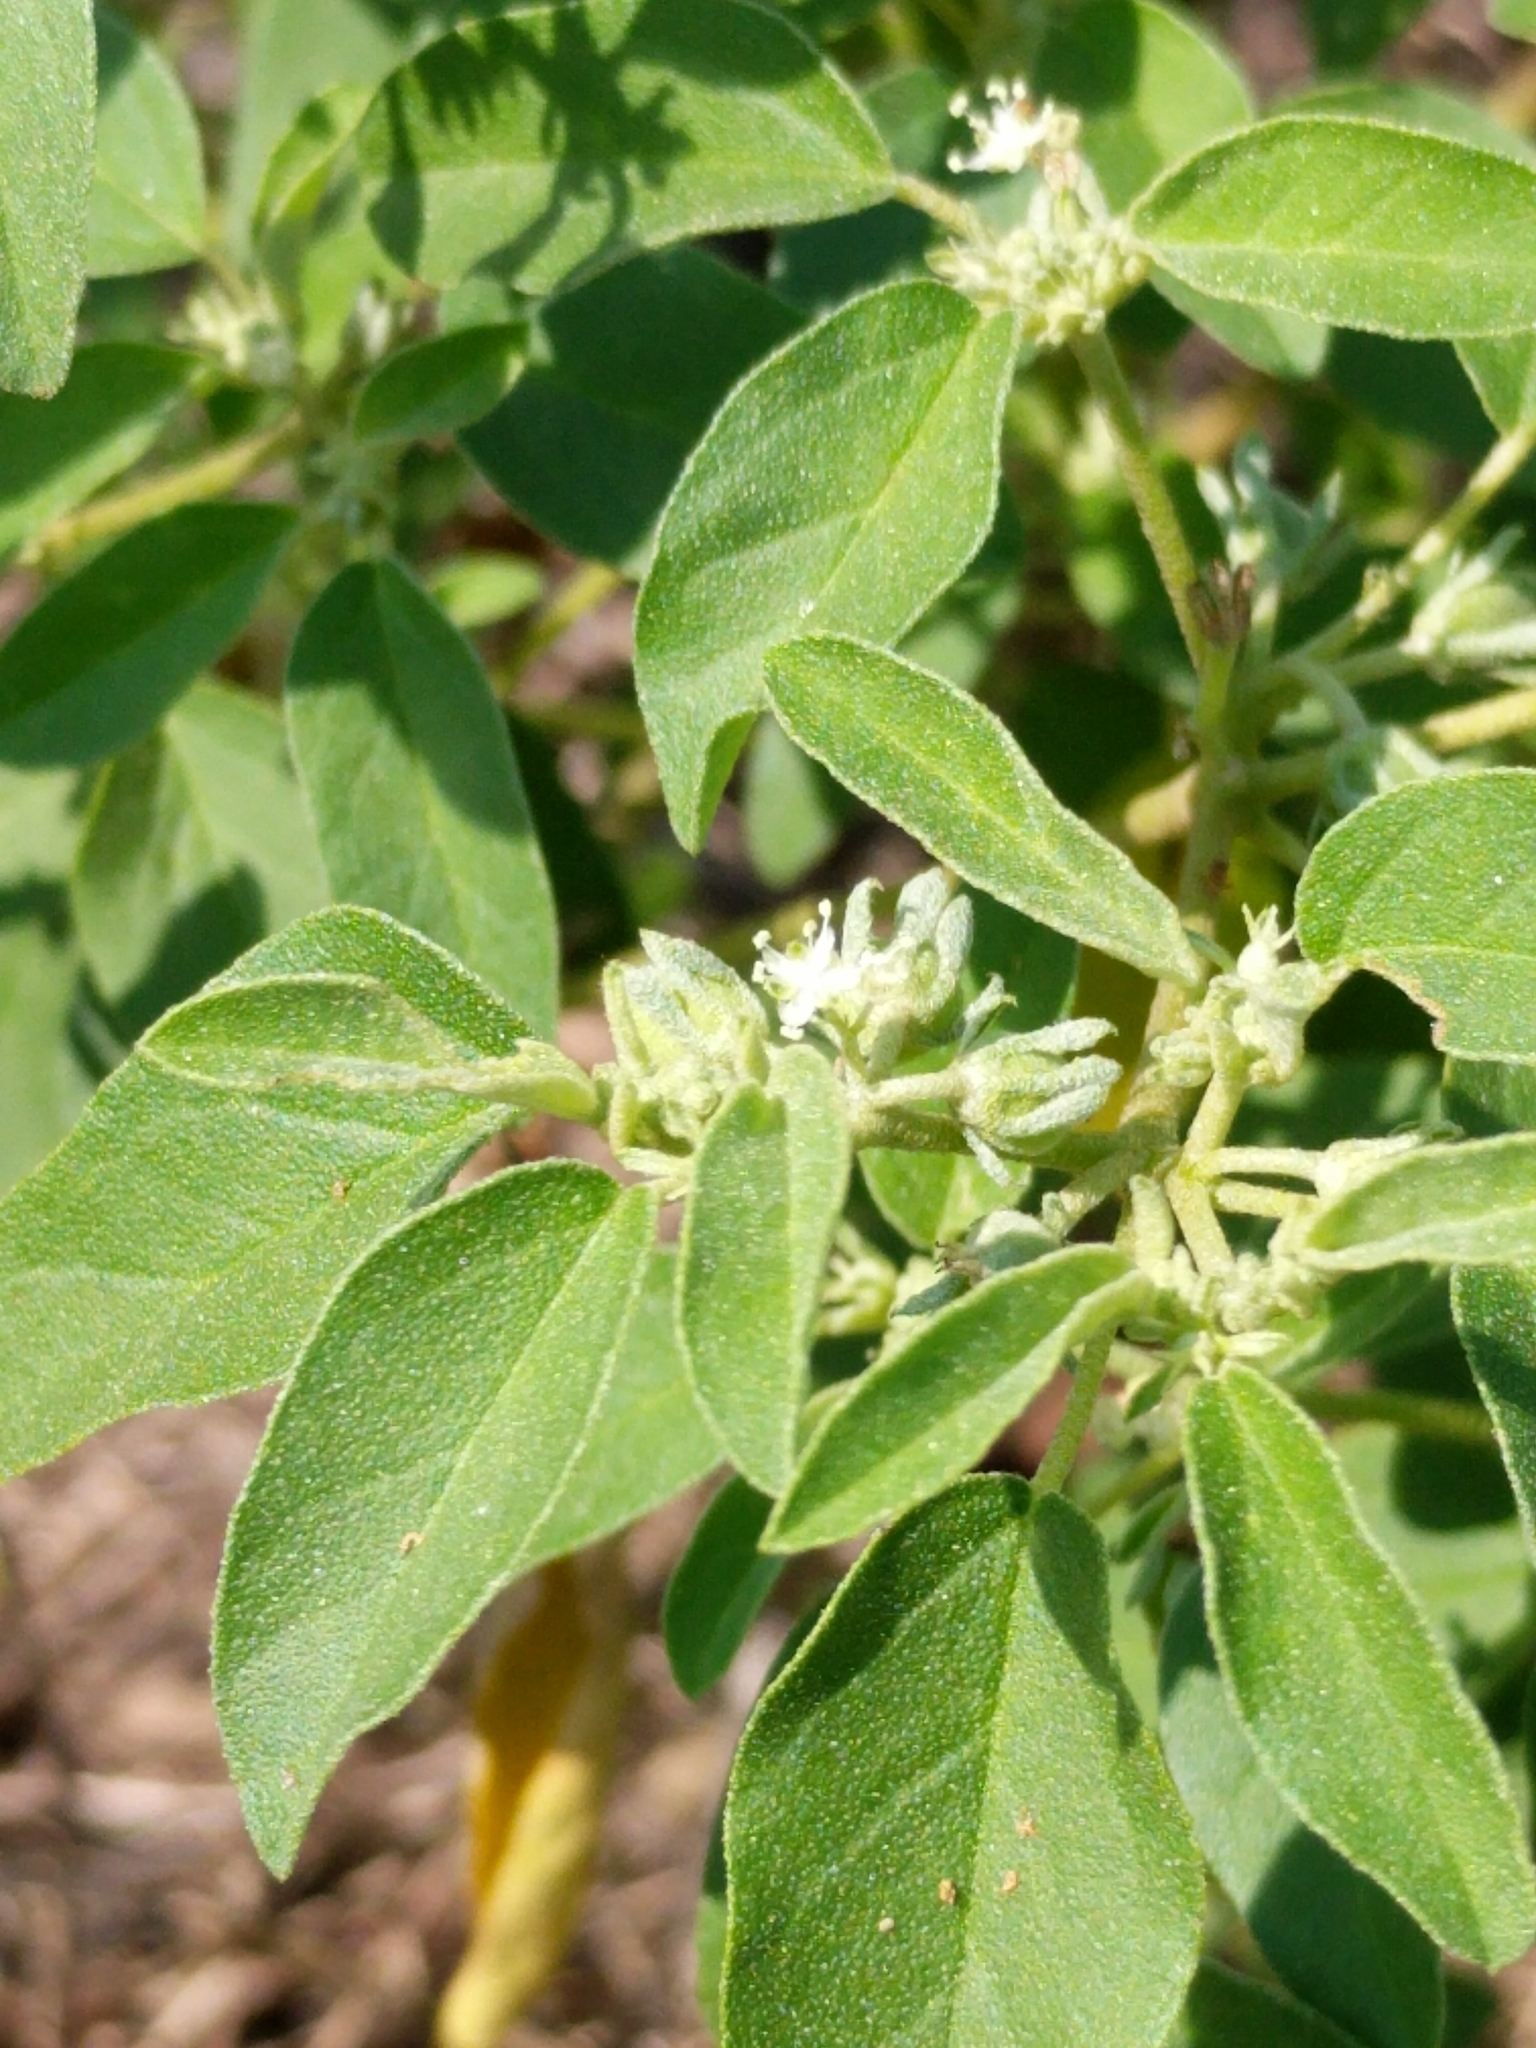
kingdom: Plantae
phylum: Tracheophyta
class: Magnoliopsida
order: Malpighiales
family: Euphorbiaceae
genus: Croton
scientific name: Croton monanthogynus
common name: One-seed croton
